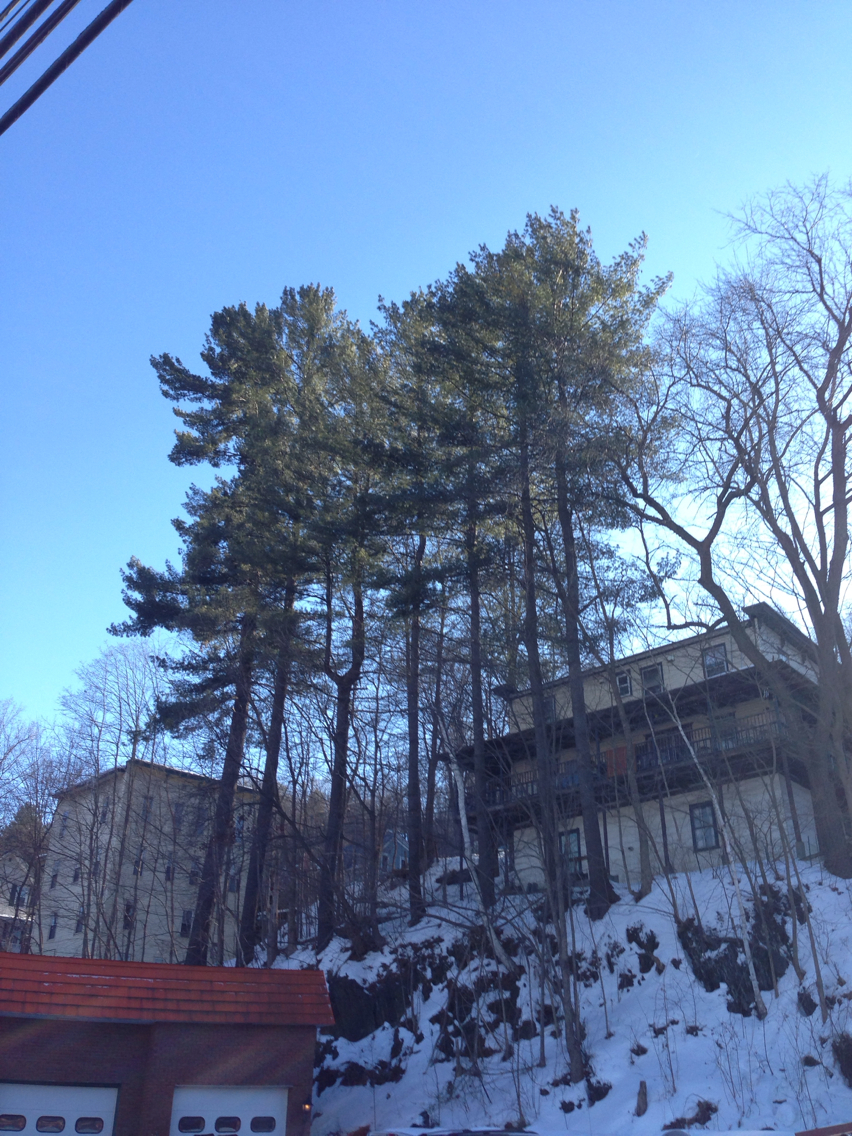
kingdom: Plantae
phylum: Tracheophyta
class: Pinopsida
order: Pinales
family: Pinaceae
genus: Pinus
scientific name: Pinus strobus
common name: Weymouth pine
